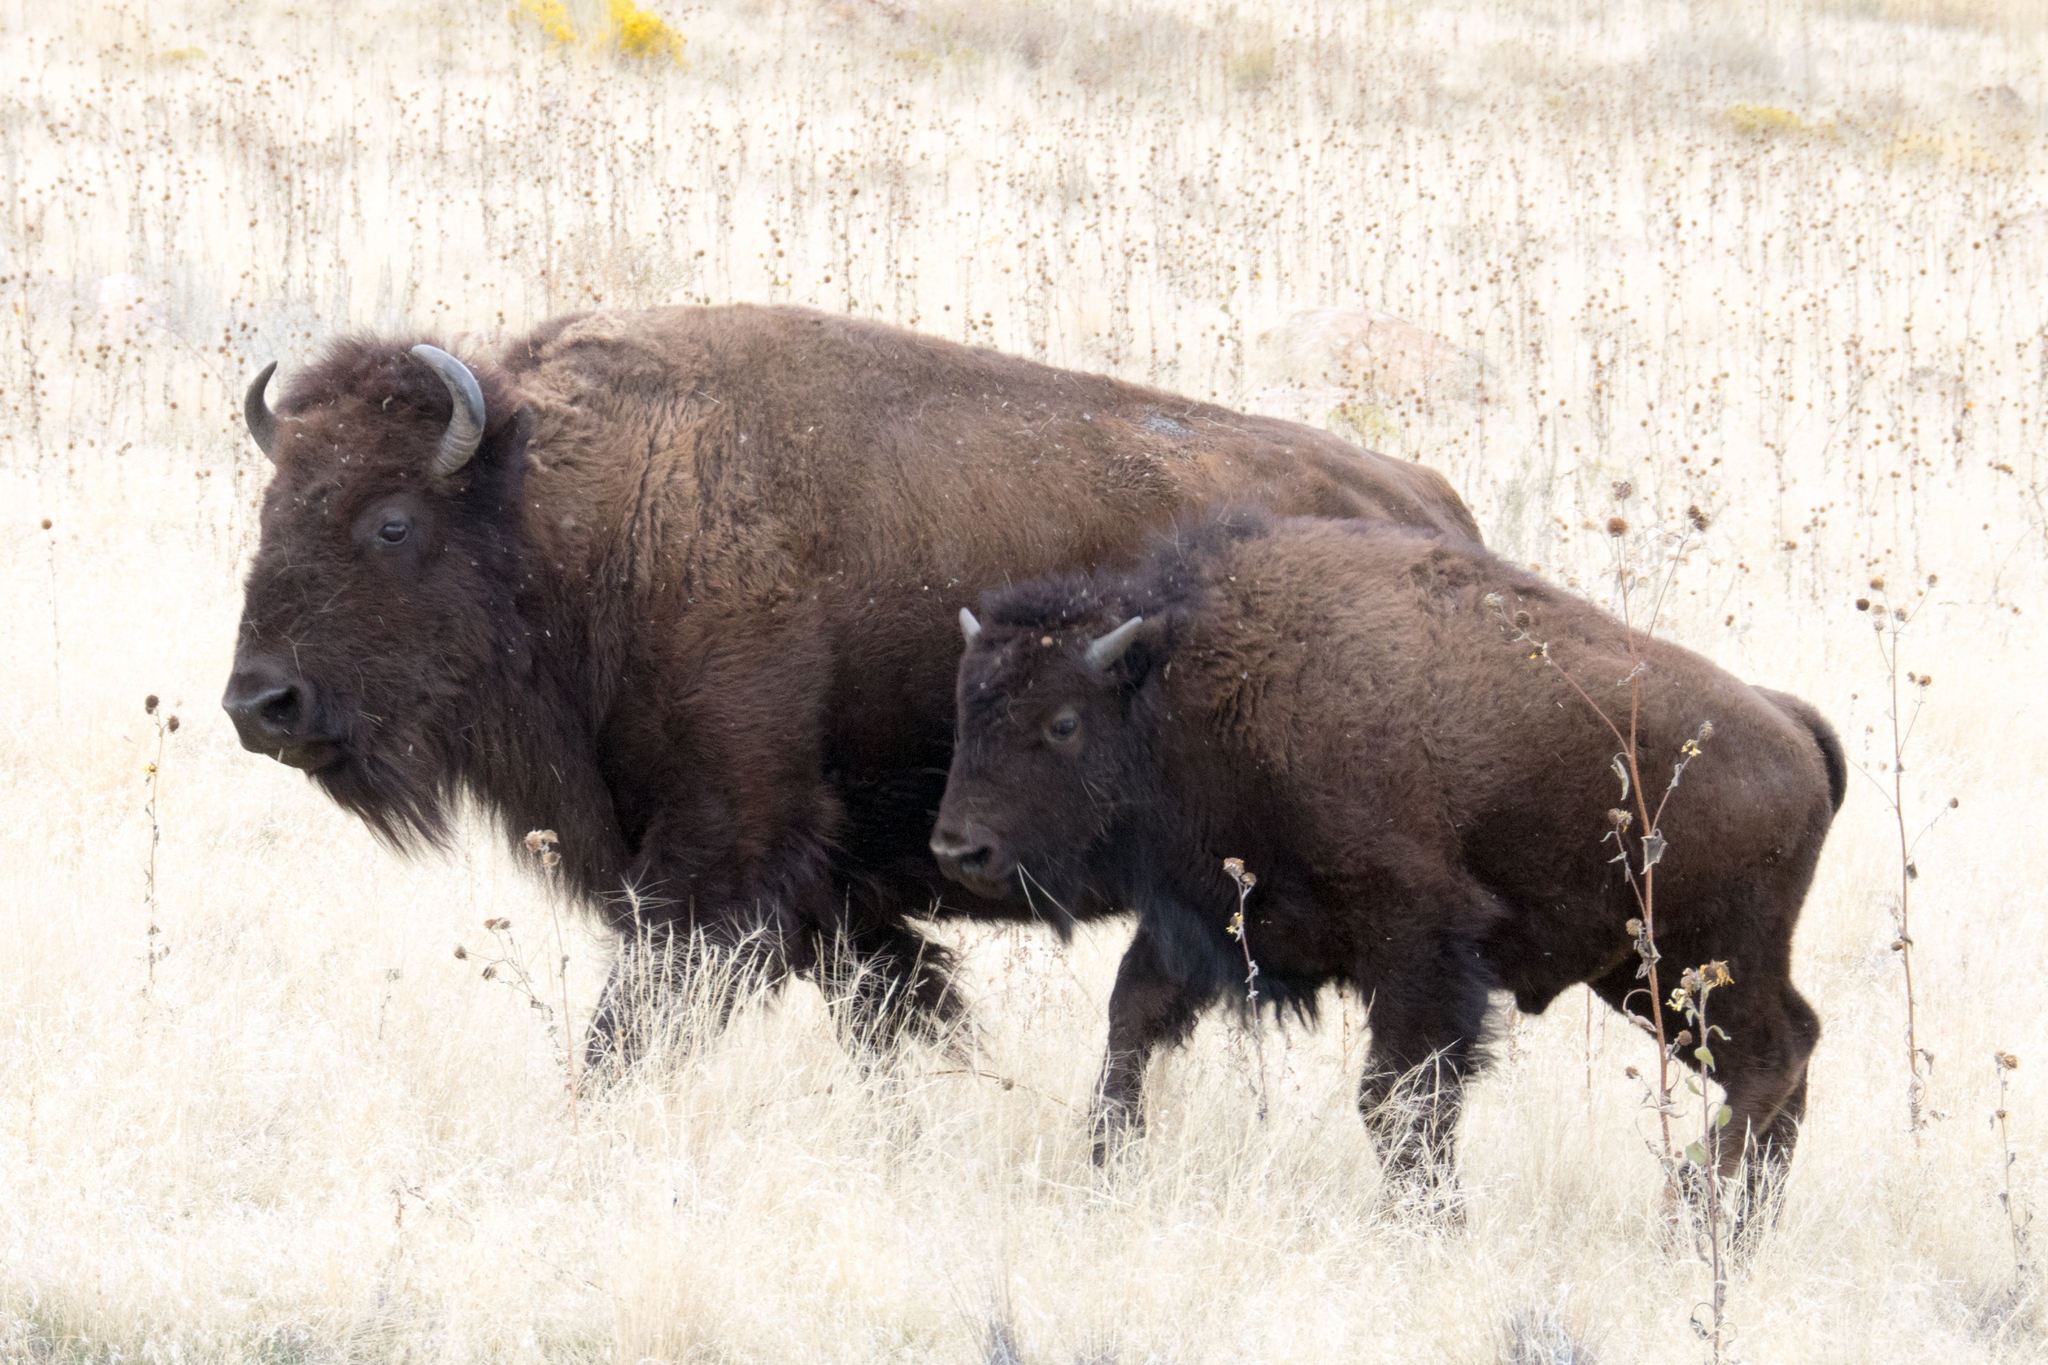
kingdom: Animalia
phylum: Chordata
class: Mammalia
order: Artiodactyla
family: Bovidae
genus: Bison
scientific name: Bison bison
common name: American bison
